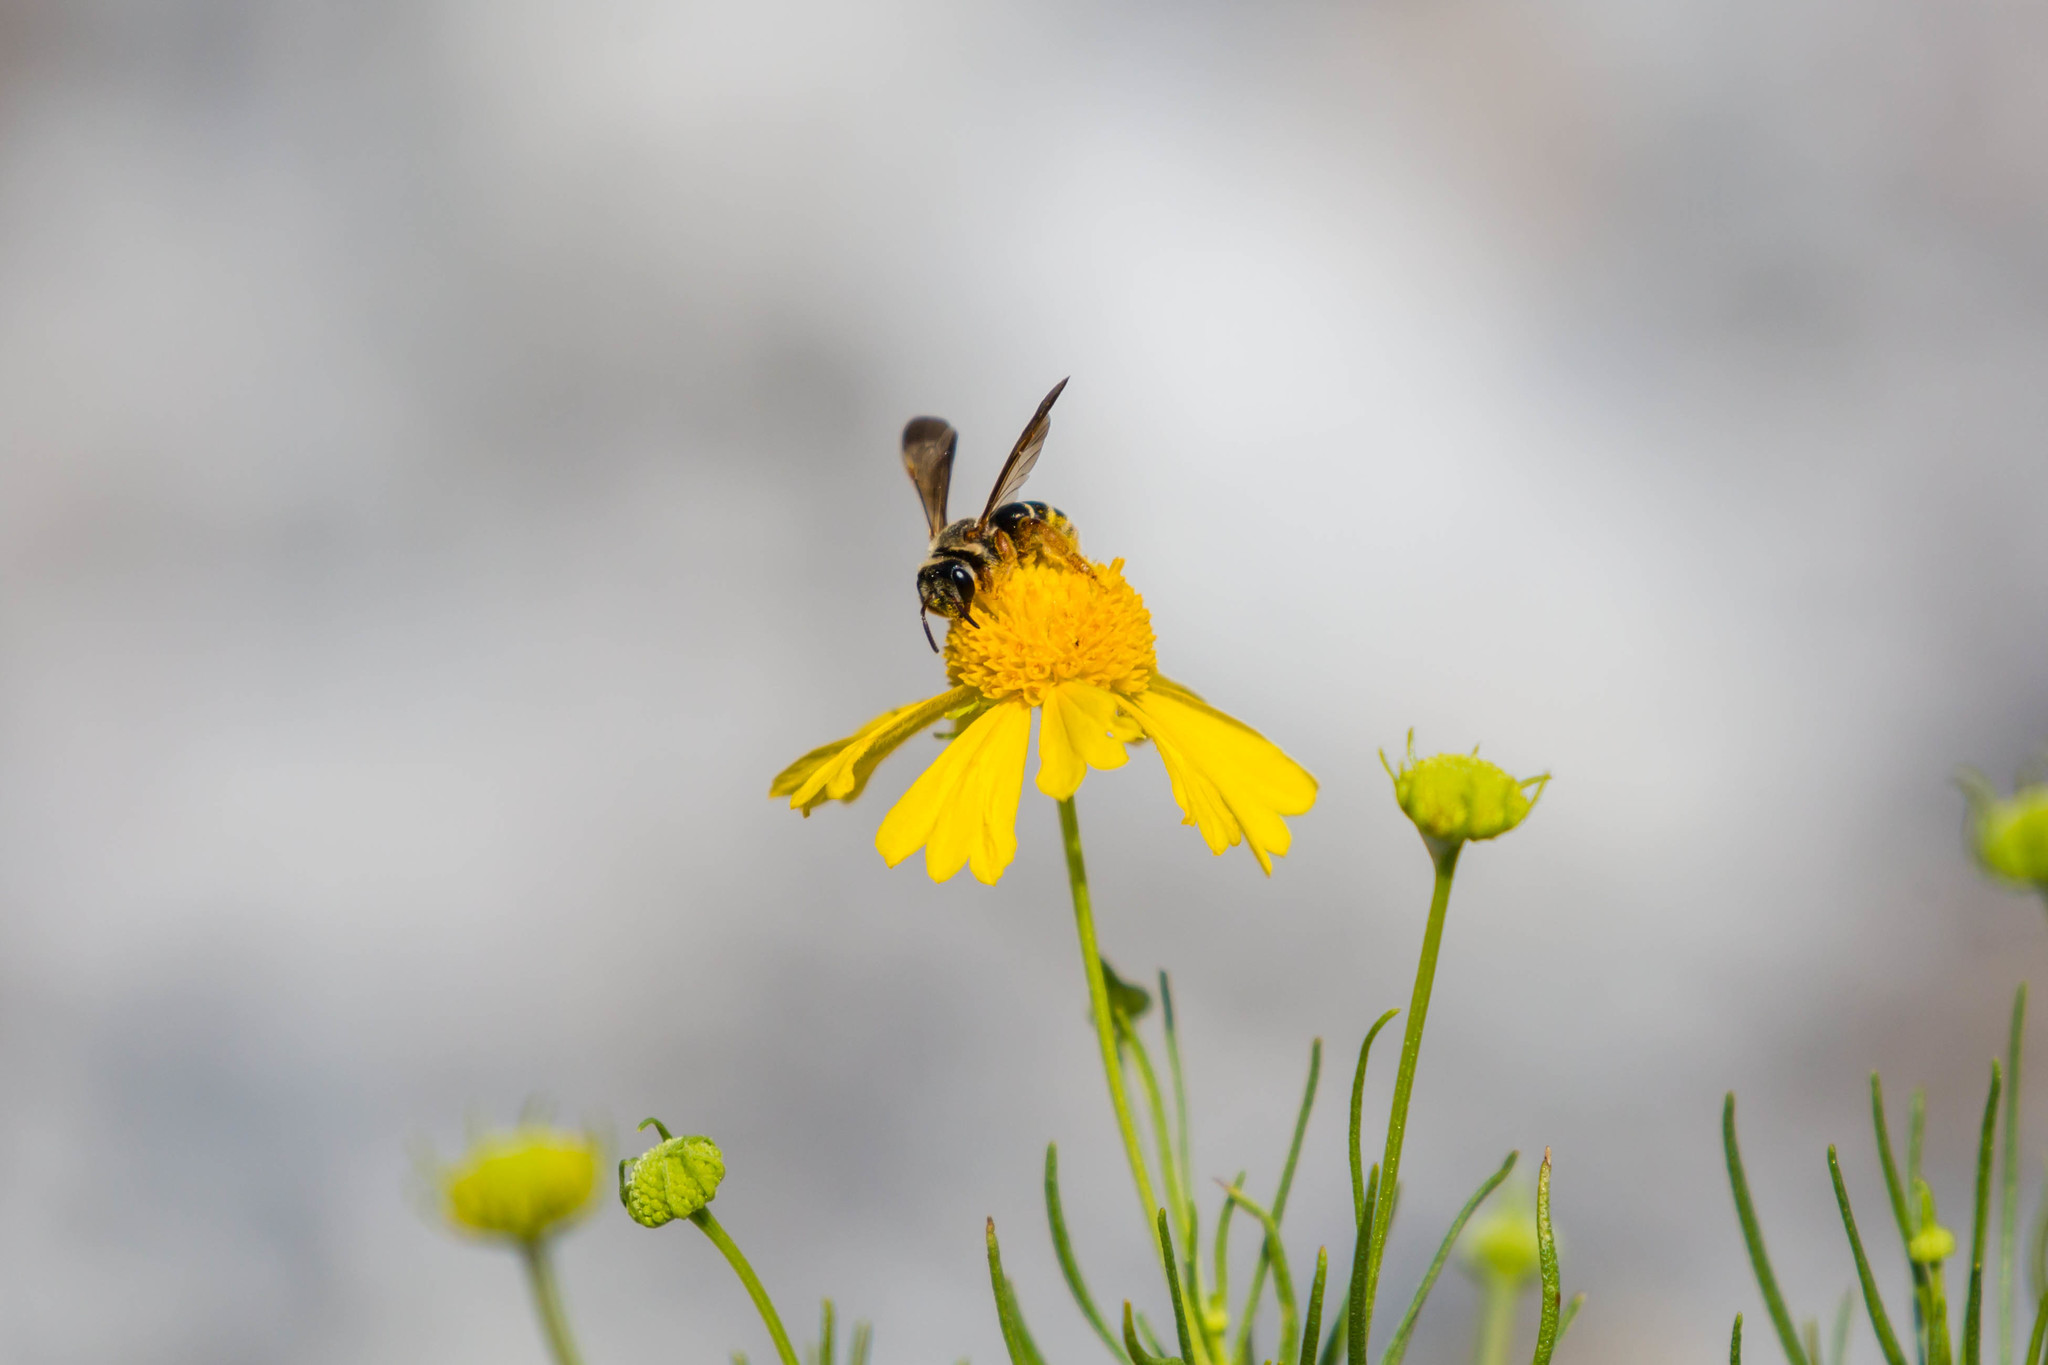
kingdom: Animalia
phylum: Arthropoda
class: Insecta
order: Hymenoptera
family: Halictidae
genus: Dieunomia
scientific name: Dieunomia nevadensis
